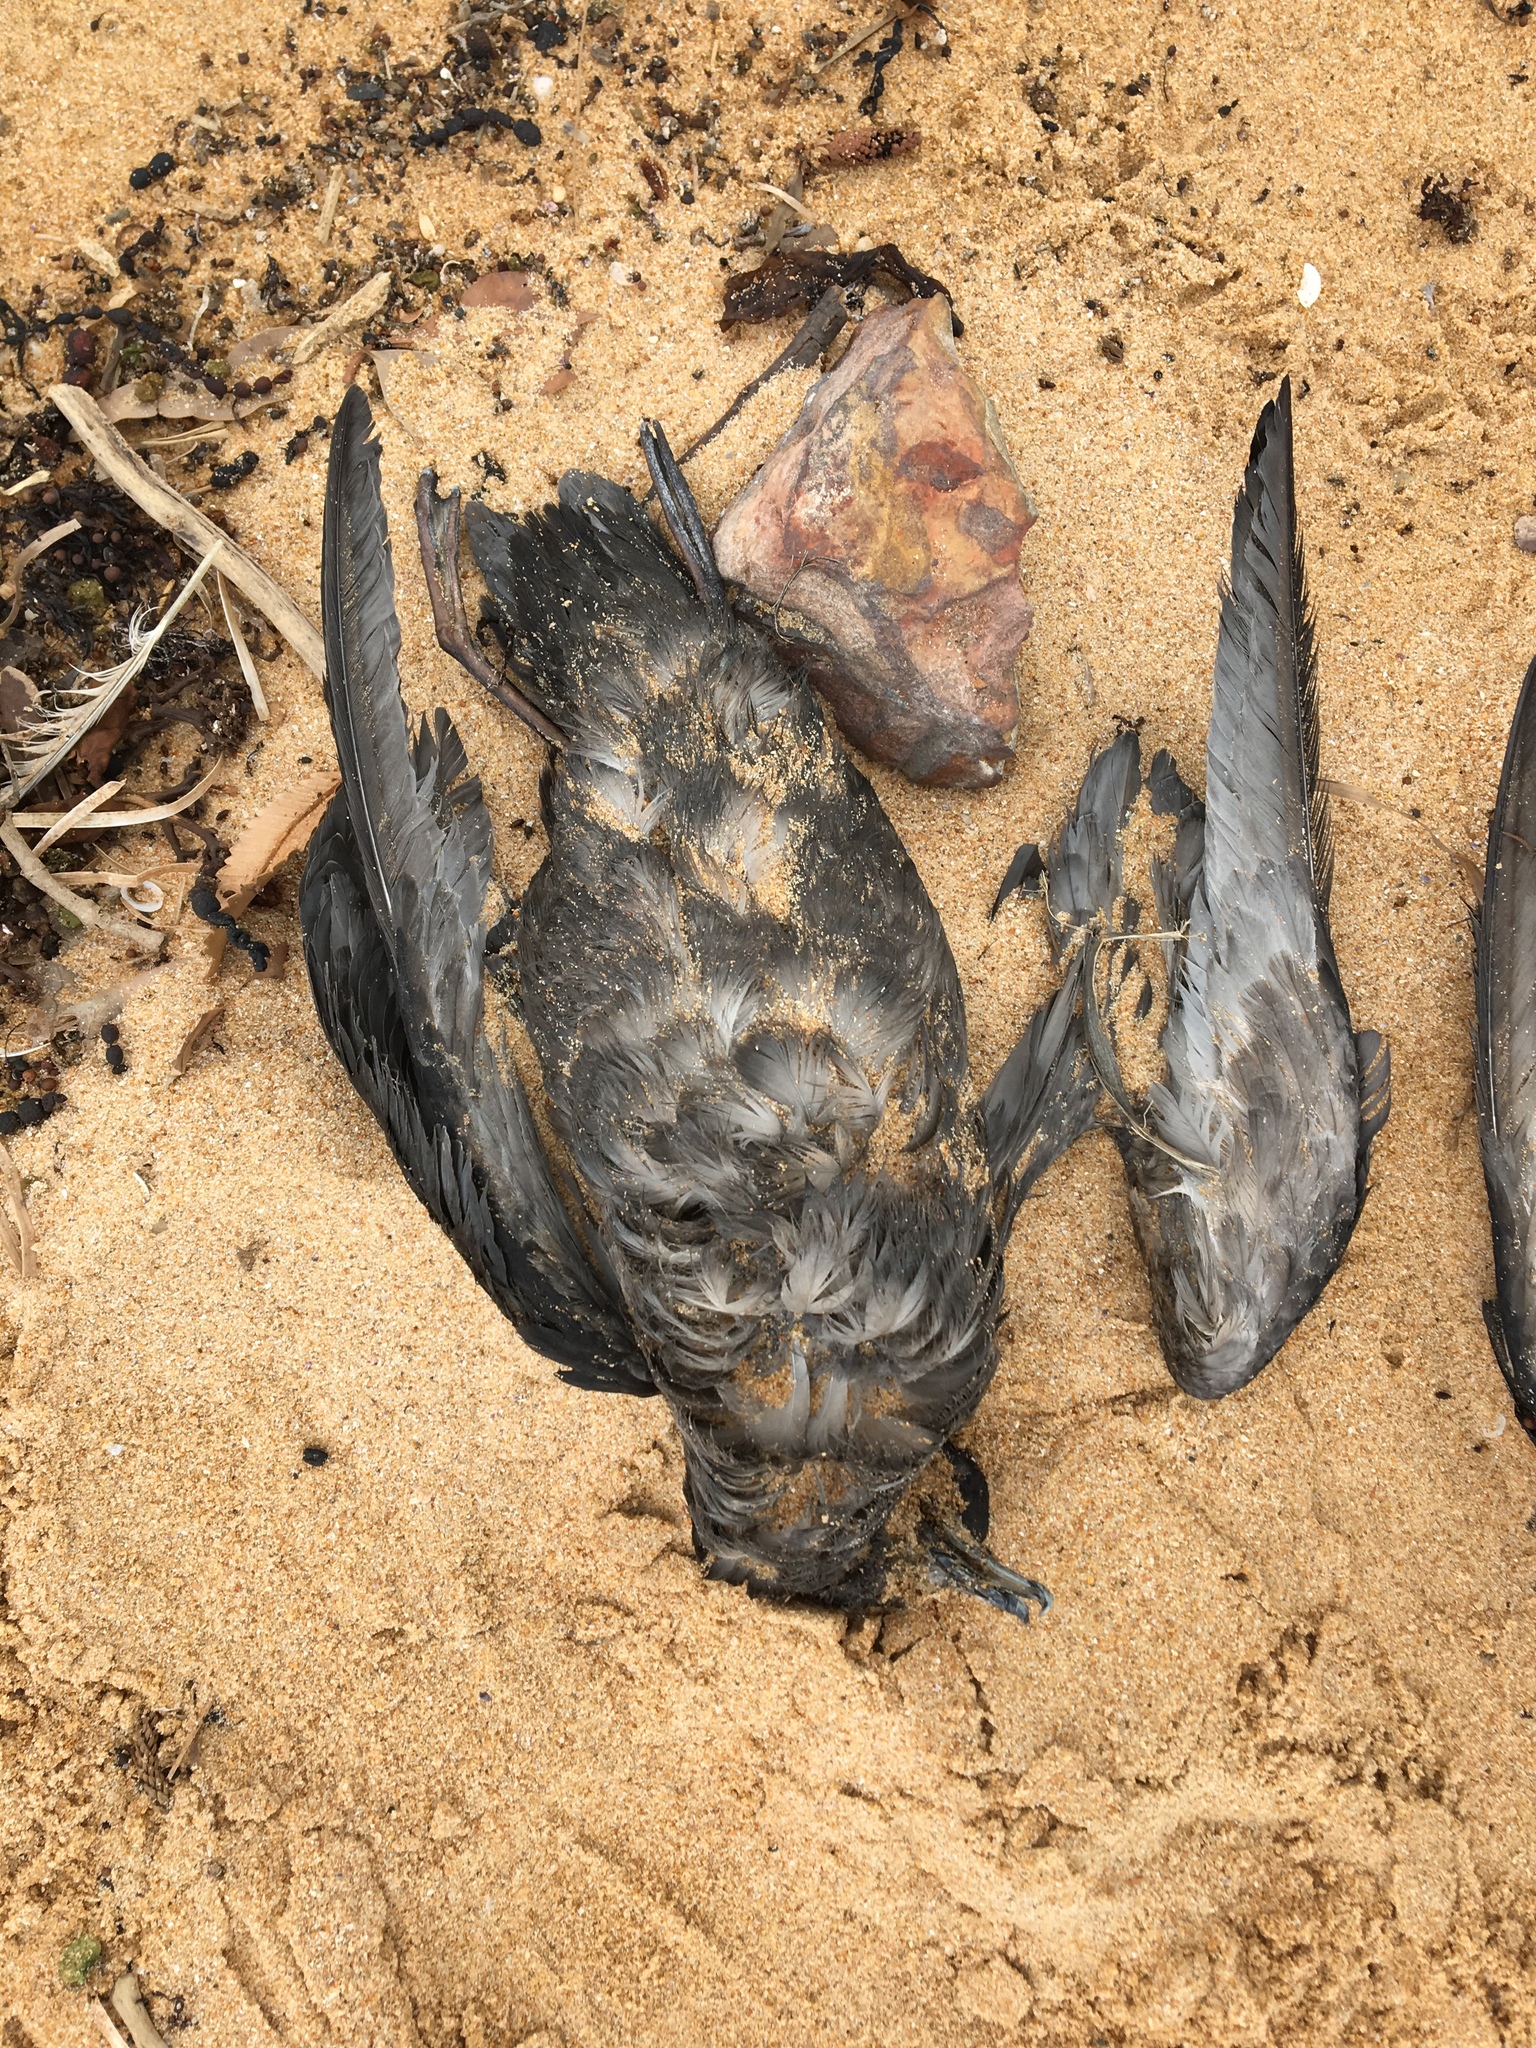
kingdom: Animalia
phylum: Chordata
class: Aves
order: Procellariiformes
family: Procellariidae
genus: Puffinus
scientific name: Puffinus tenuirostris
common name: Short-tailed shearwater
